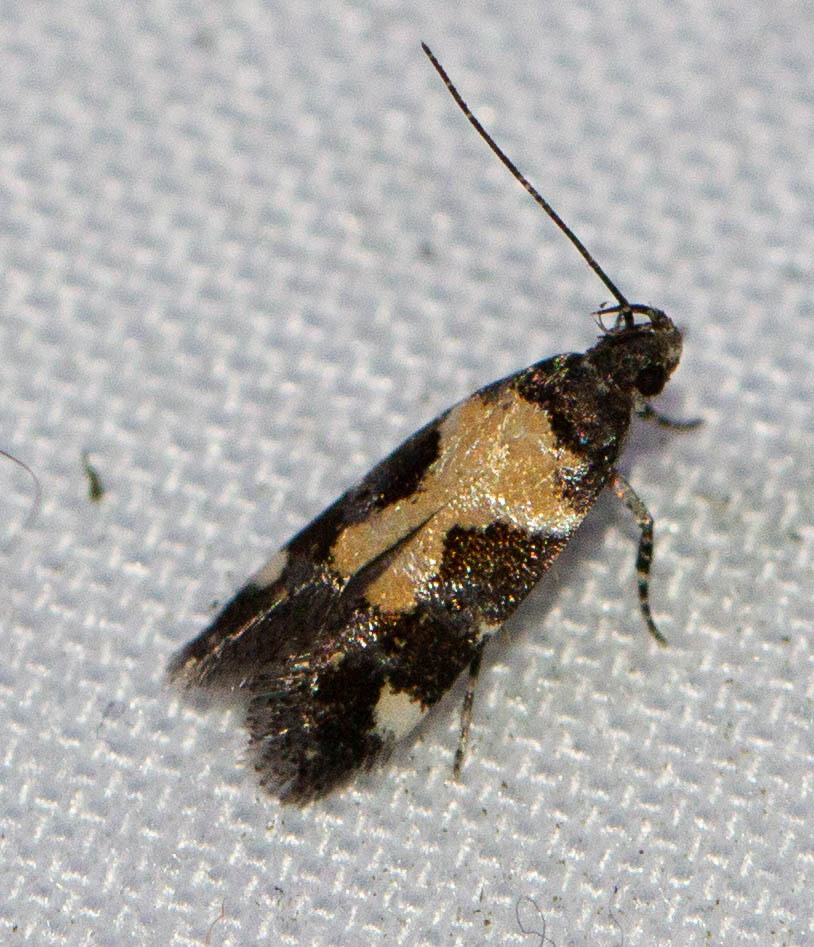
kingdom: Animalia
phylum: Arthropoda
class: Insecta
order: Lepidoptera
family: Gelechiidae
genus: Stegasta
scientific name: Stegasta bosqueella
